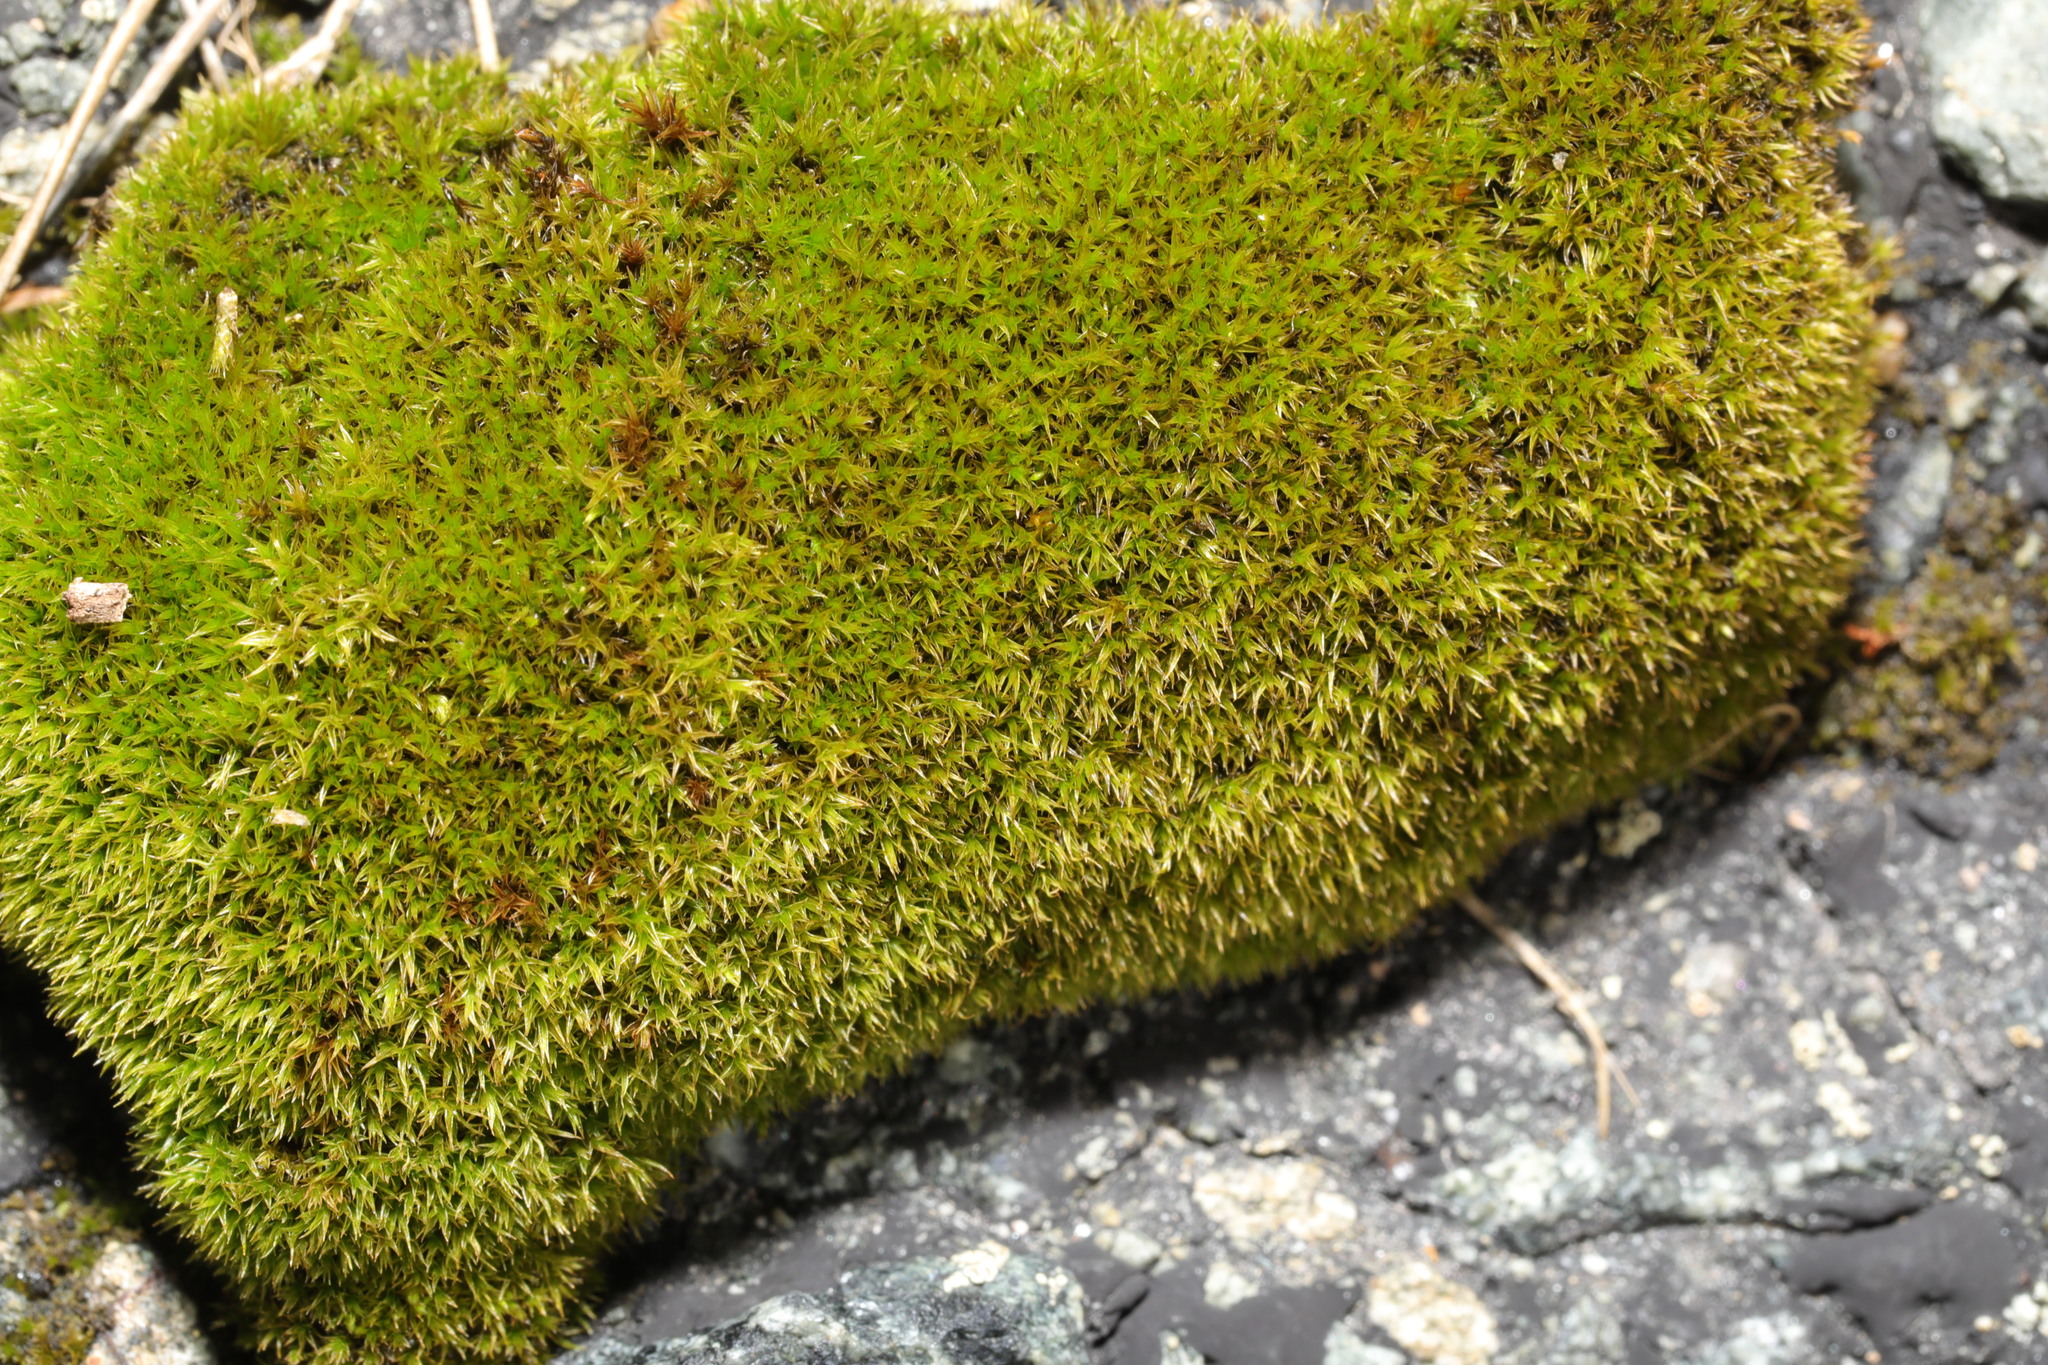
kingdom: Plantae
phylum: Bryophyta
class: Bryopsida
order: Dicranales
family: Ditrichaceae
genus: Ceratodon
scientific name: Ceratodon purpureus
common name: Redshank
